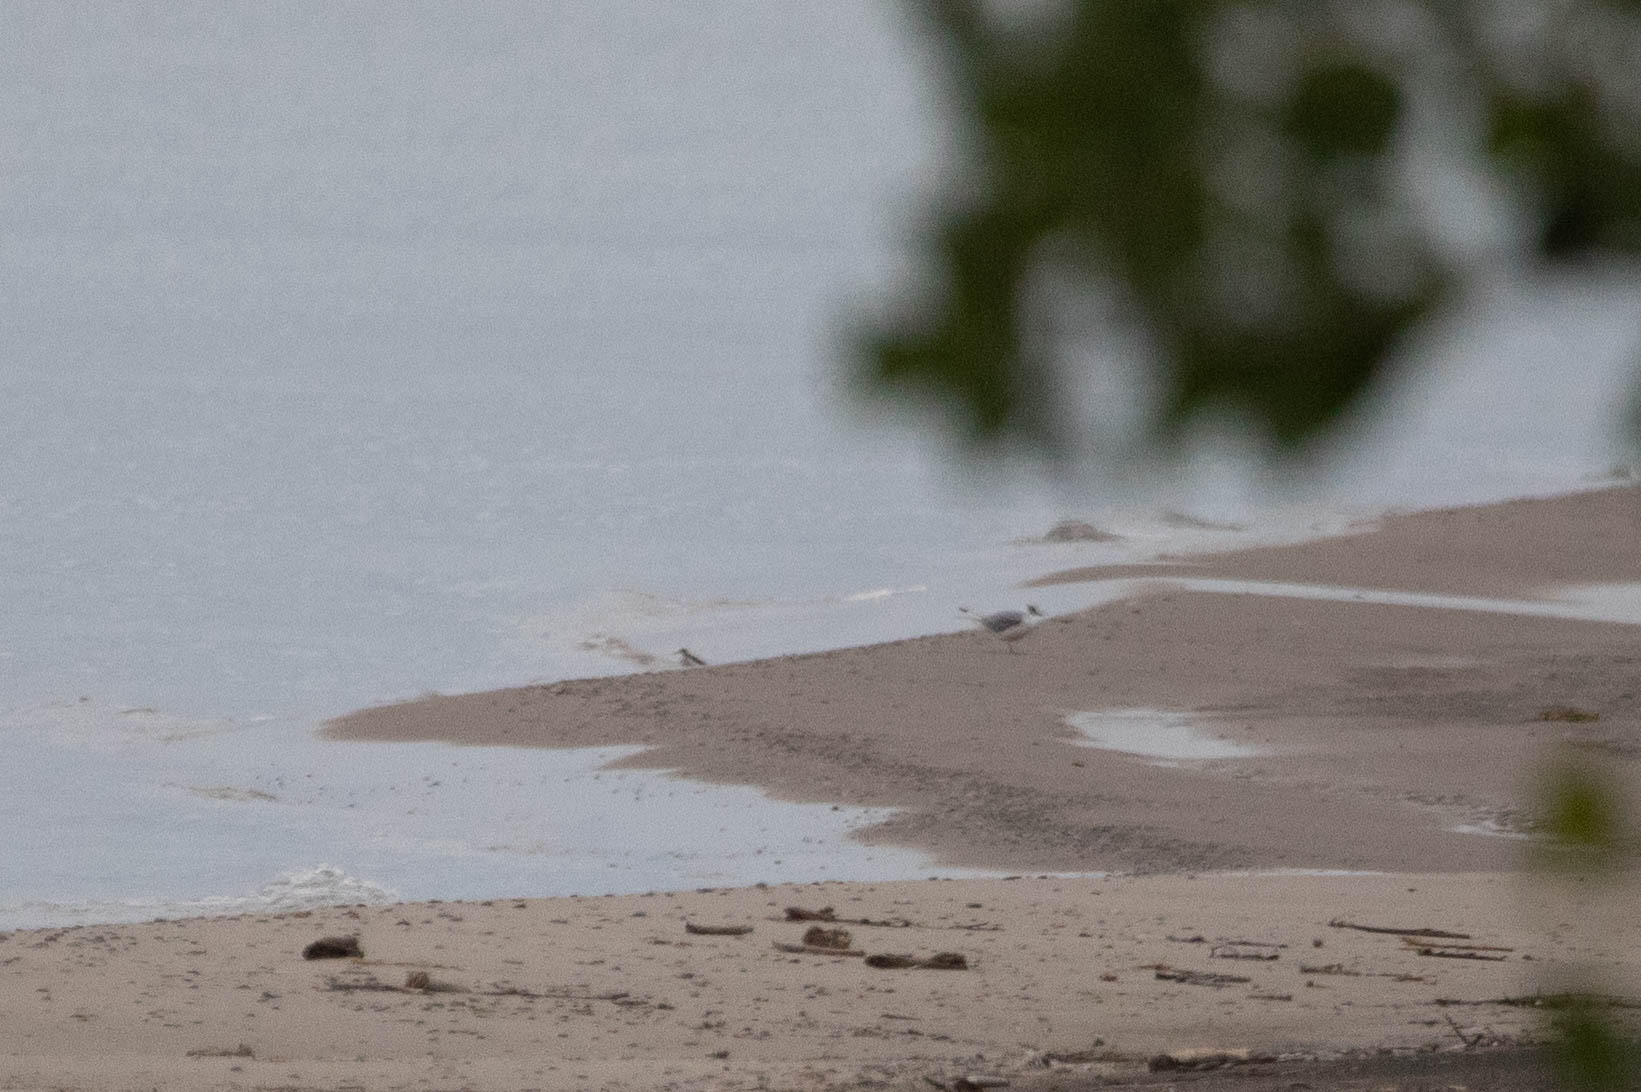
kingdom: Animalia
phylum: Chordata
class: Aves
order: Charadriiformes
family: Laridae
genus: Chroicocephalus
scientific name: Chroicocephalus philadelphia
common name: Bonaparte's gull
